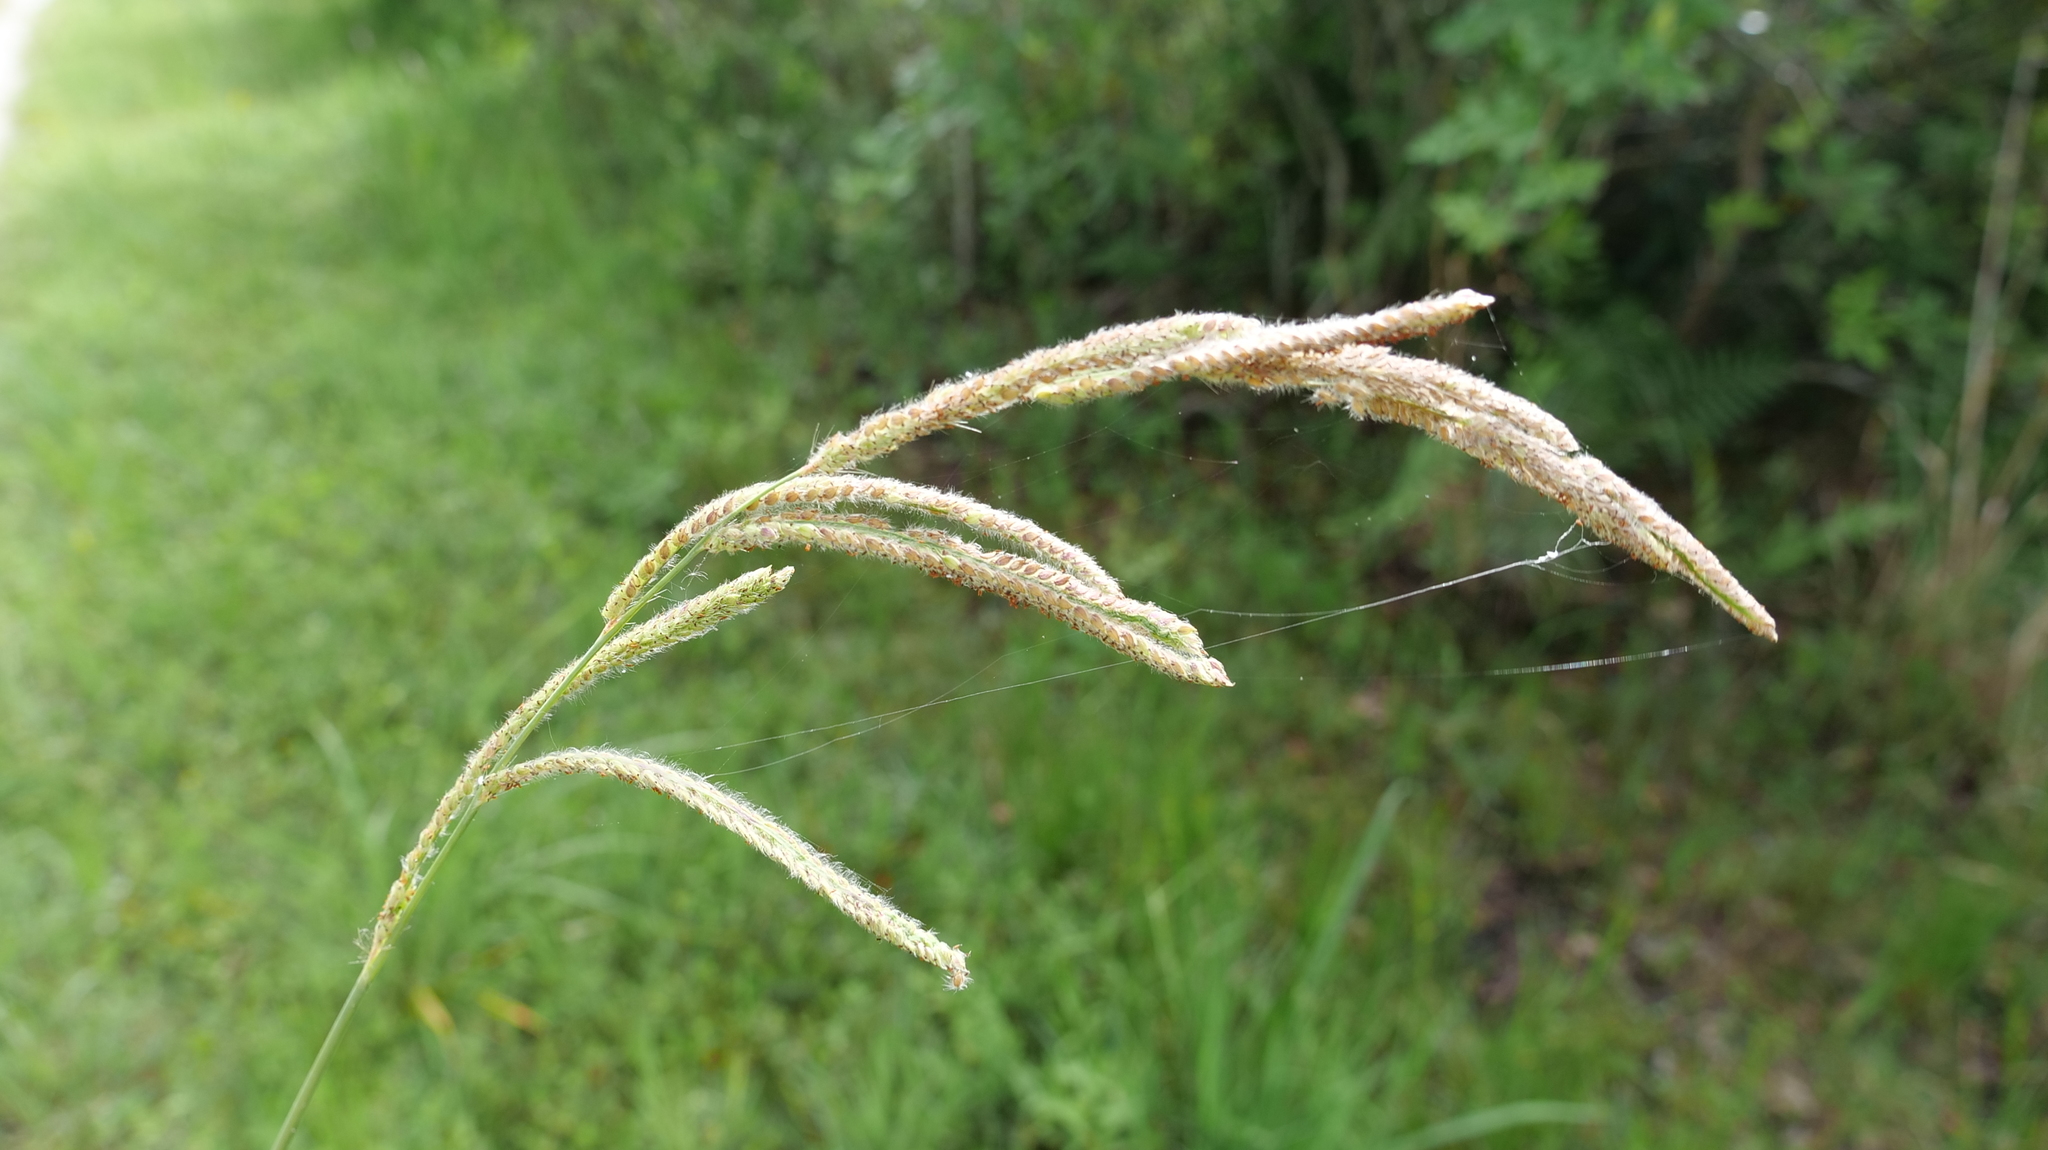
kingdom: Plantae
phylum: Tracheophyta
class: Liliopsida
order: Poales
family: Poaceae
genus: Paspalum
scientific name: Paspalum urvillei
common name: Vasey's grass
